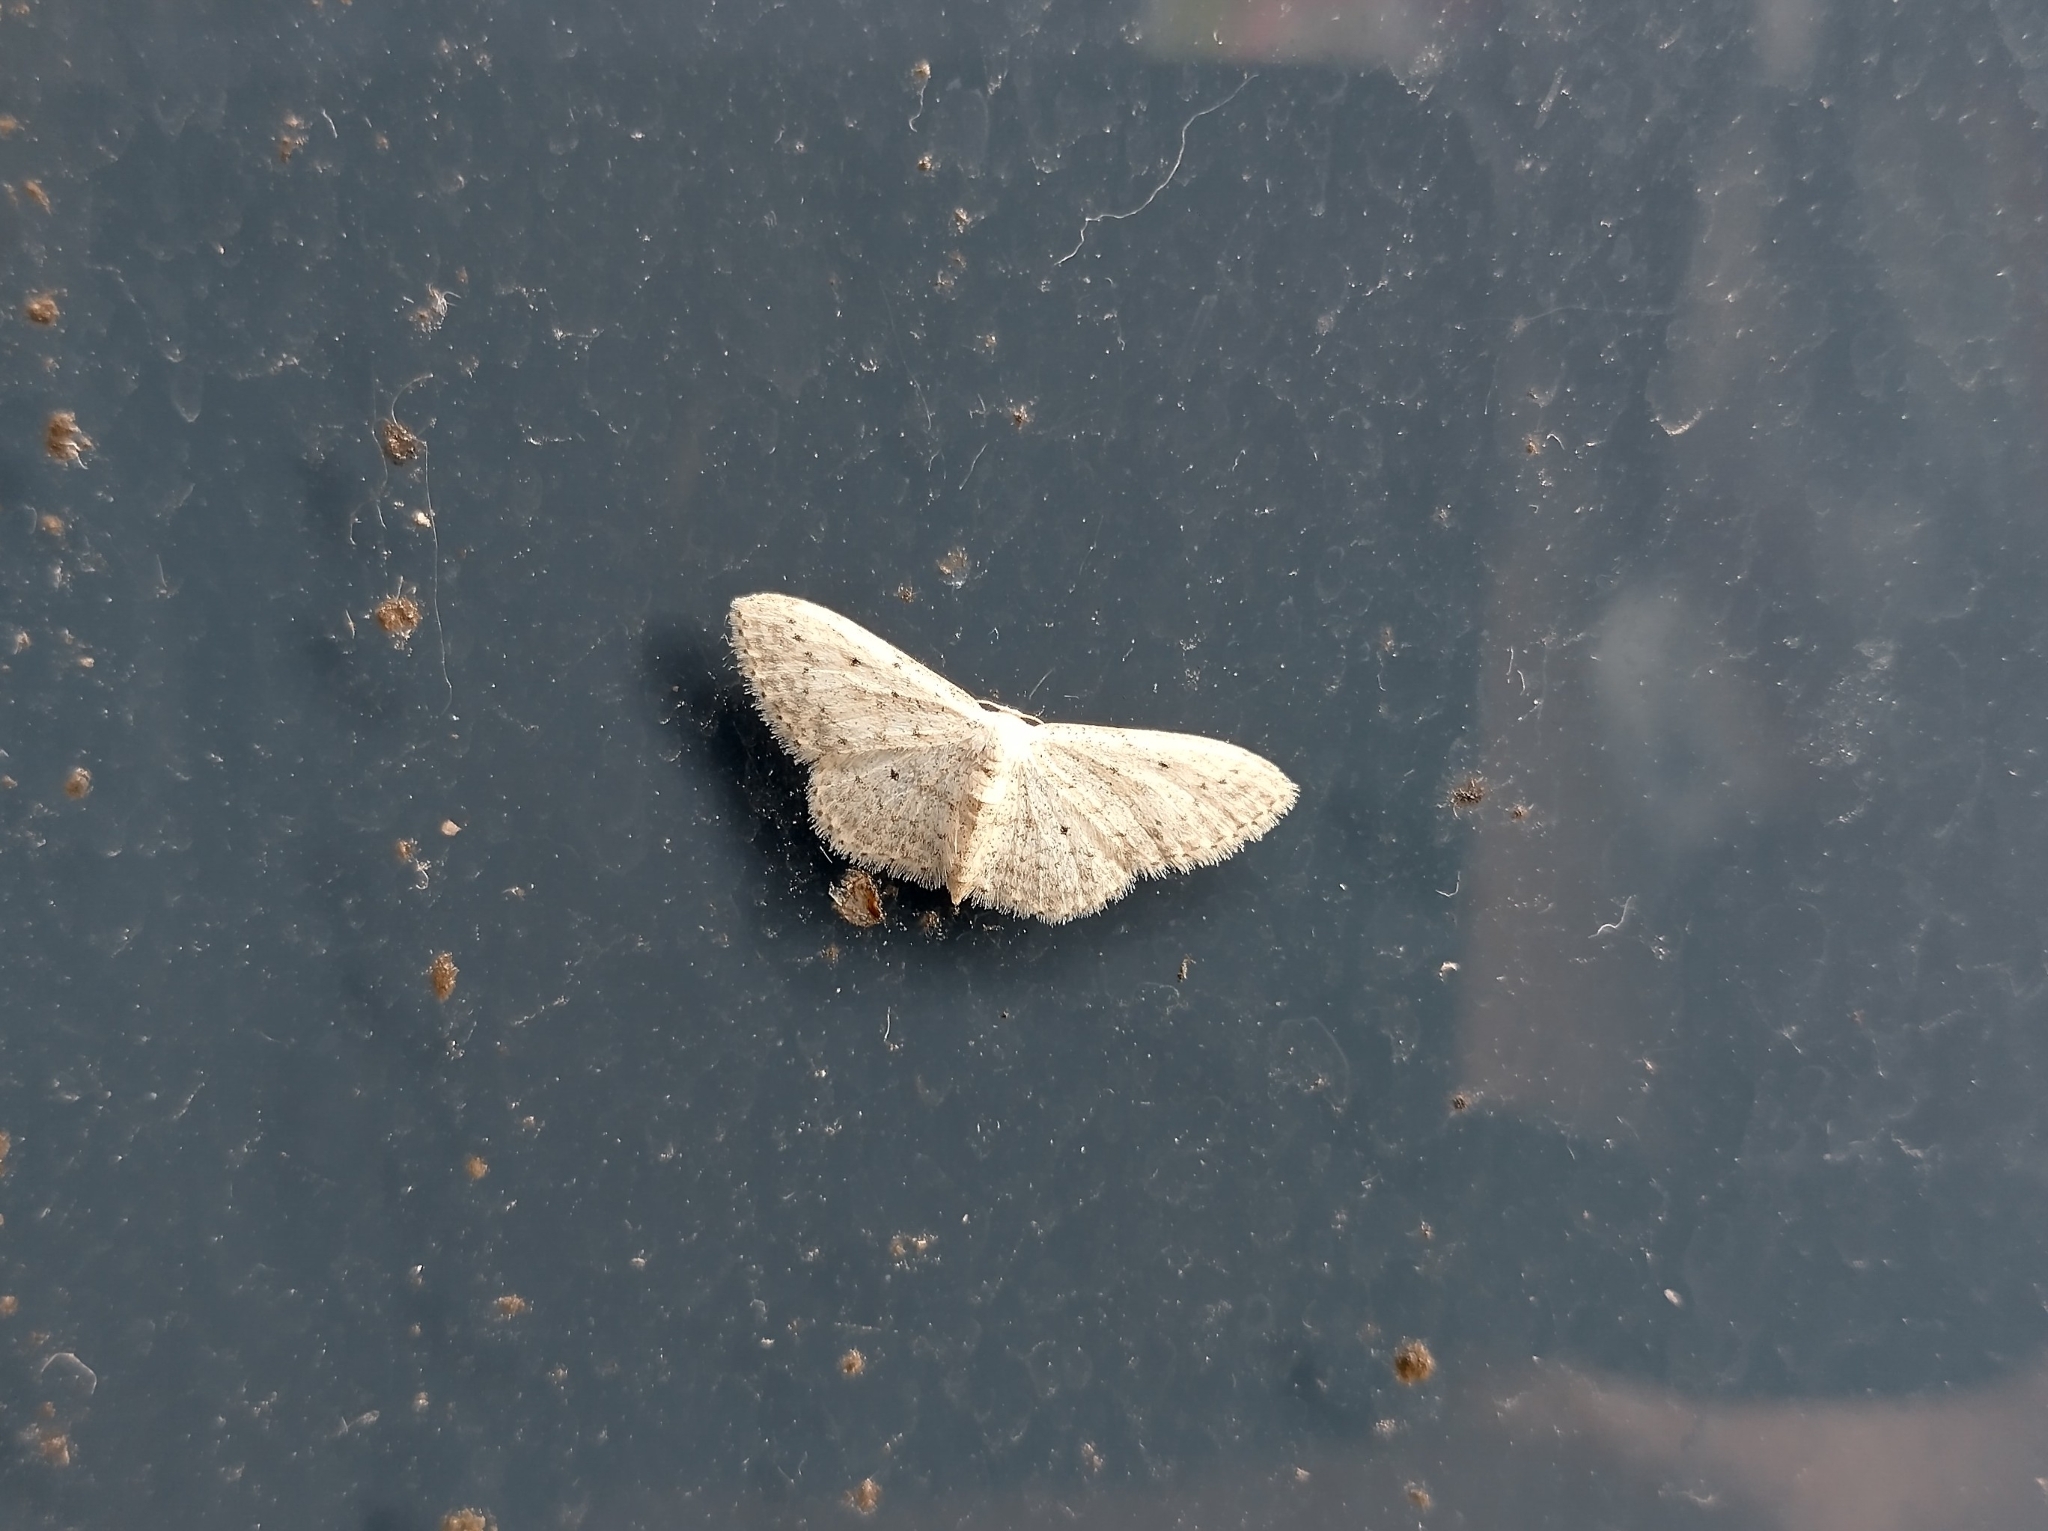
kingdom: Animalia
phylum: Arthropoda
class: Insecta
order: Lepidoptera
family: Geometridae
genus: Idaea
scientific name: Idaea seriata
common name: Small dusty wave
